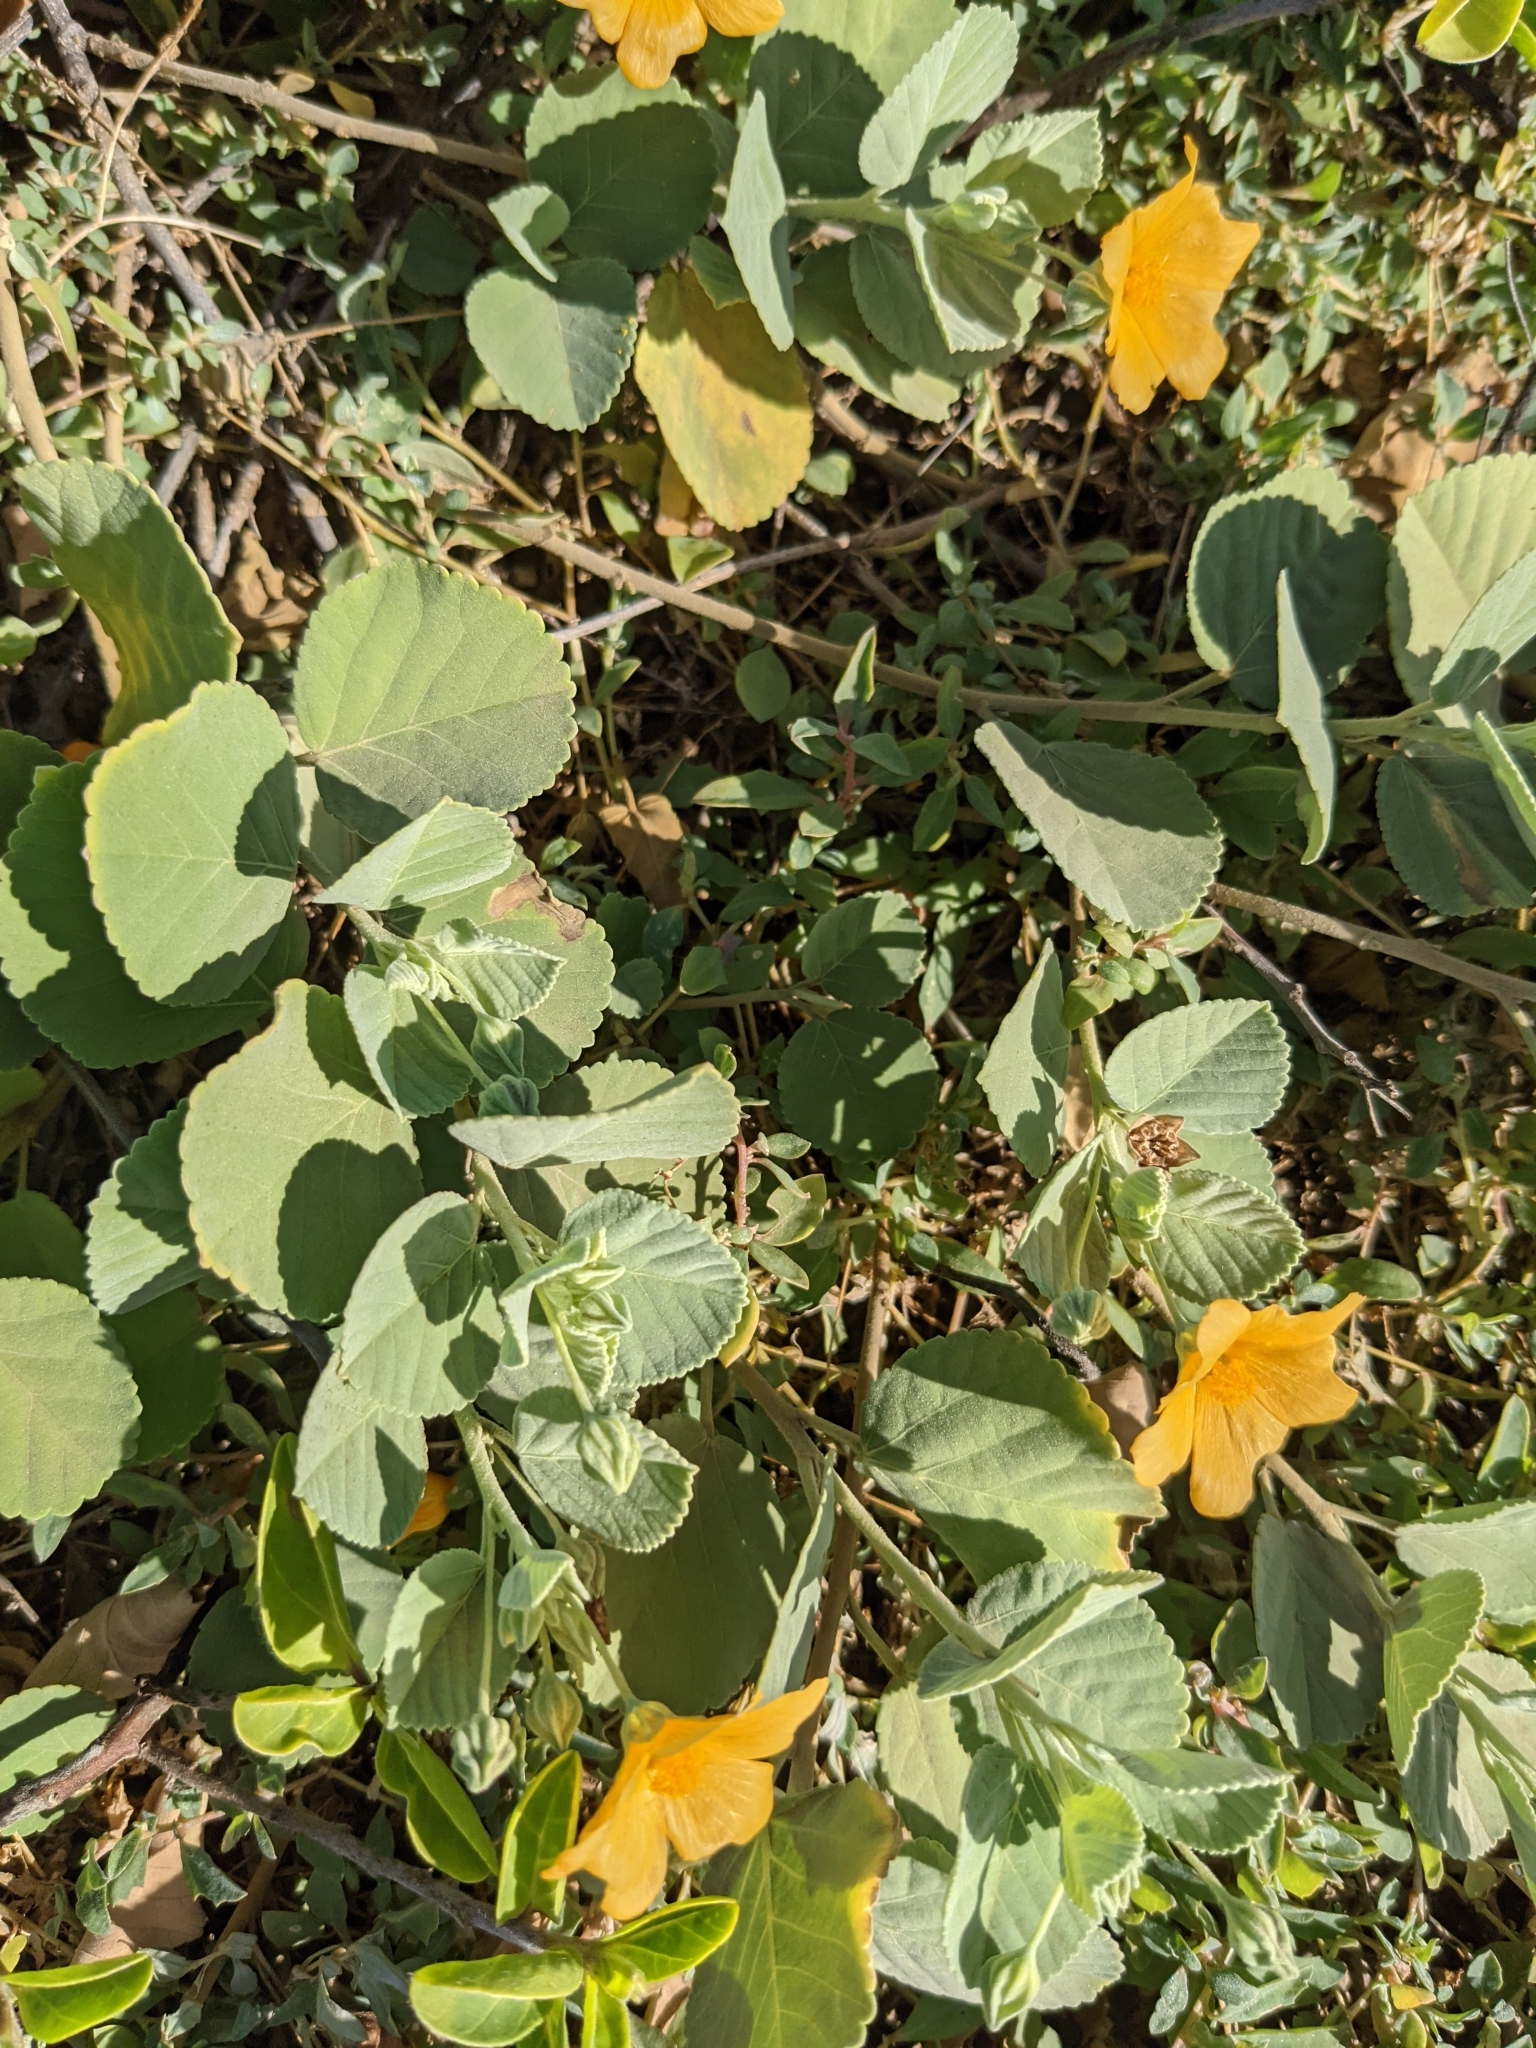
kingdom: Plantae
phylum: Tracheophyta
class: Magnoliopsida
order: Malvales
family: Malvaceae
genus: Sida
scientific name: Sida fallax
